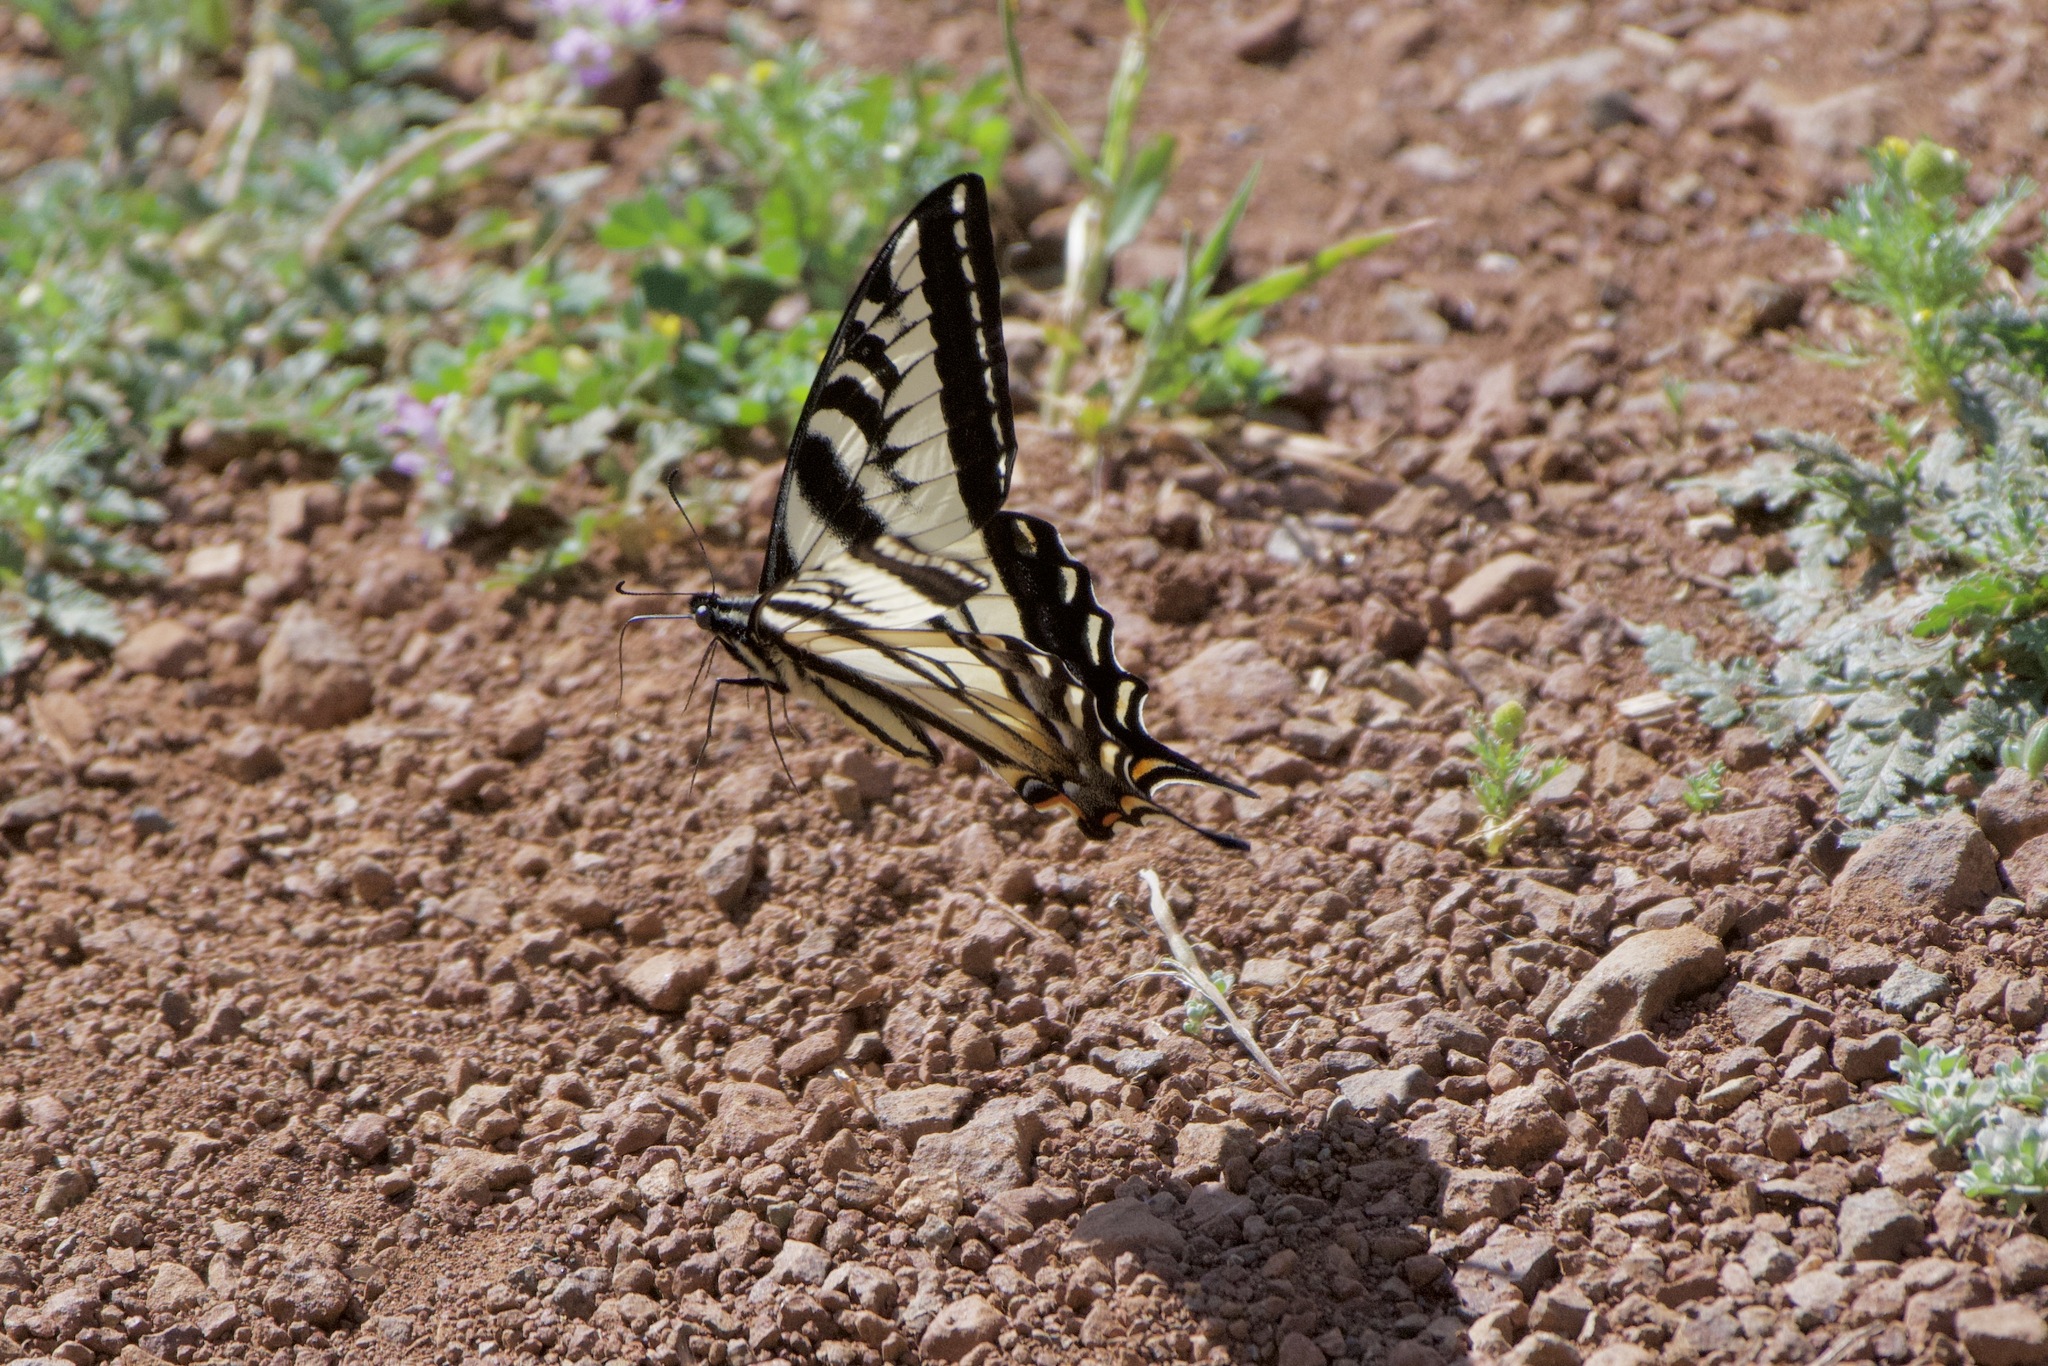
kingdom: Animalia
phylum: Arthropoda
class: Insecta
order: Lepidoptera
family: Papilionidae
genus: Papilio
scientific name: Papilio eurymedon
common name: Pale tiger swallowtail
